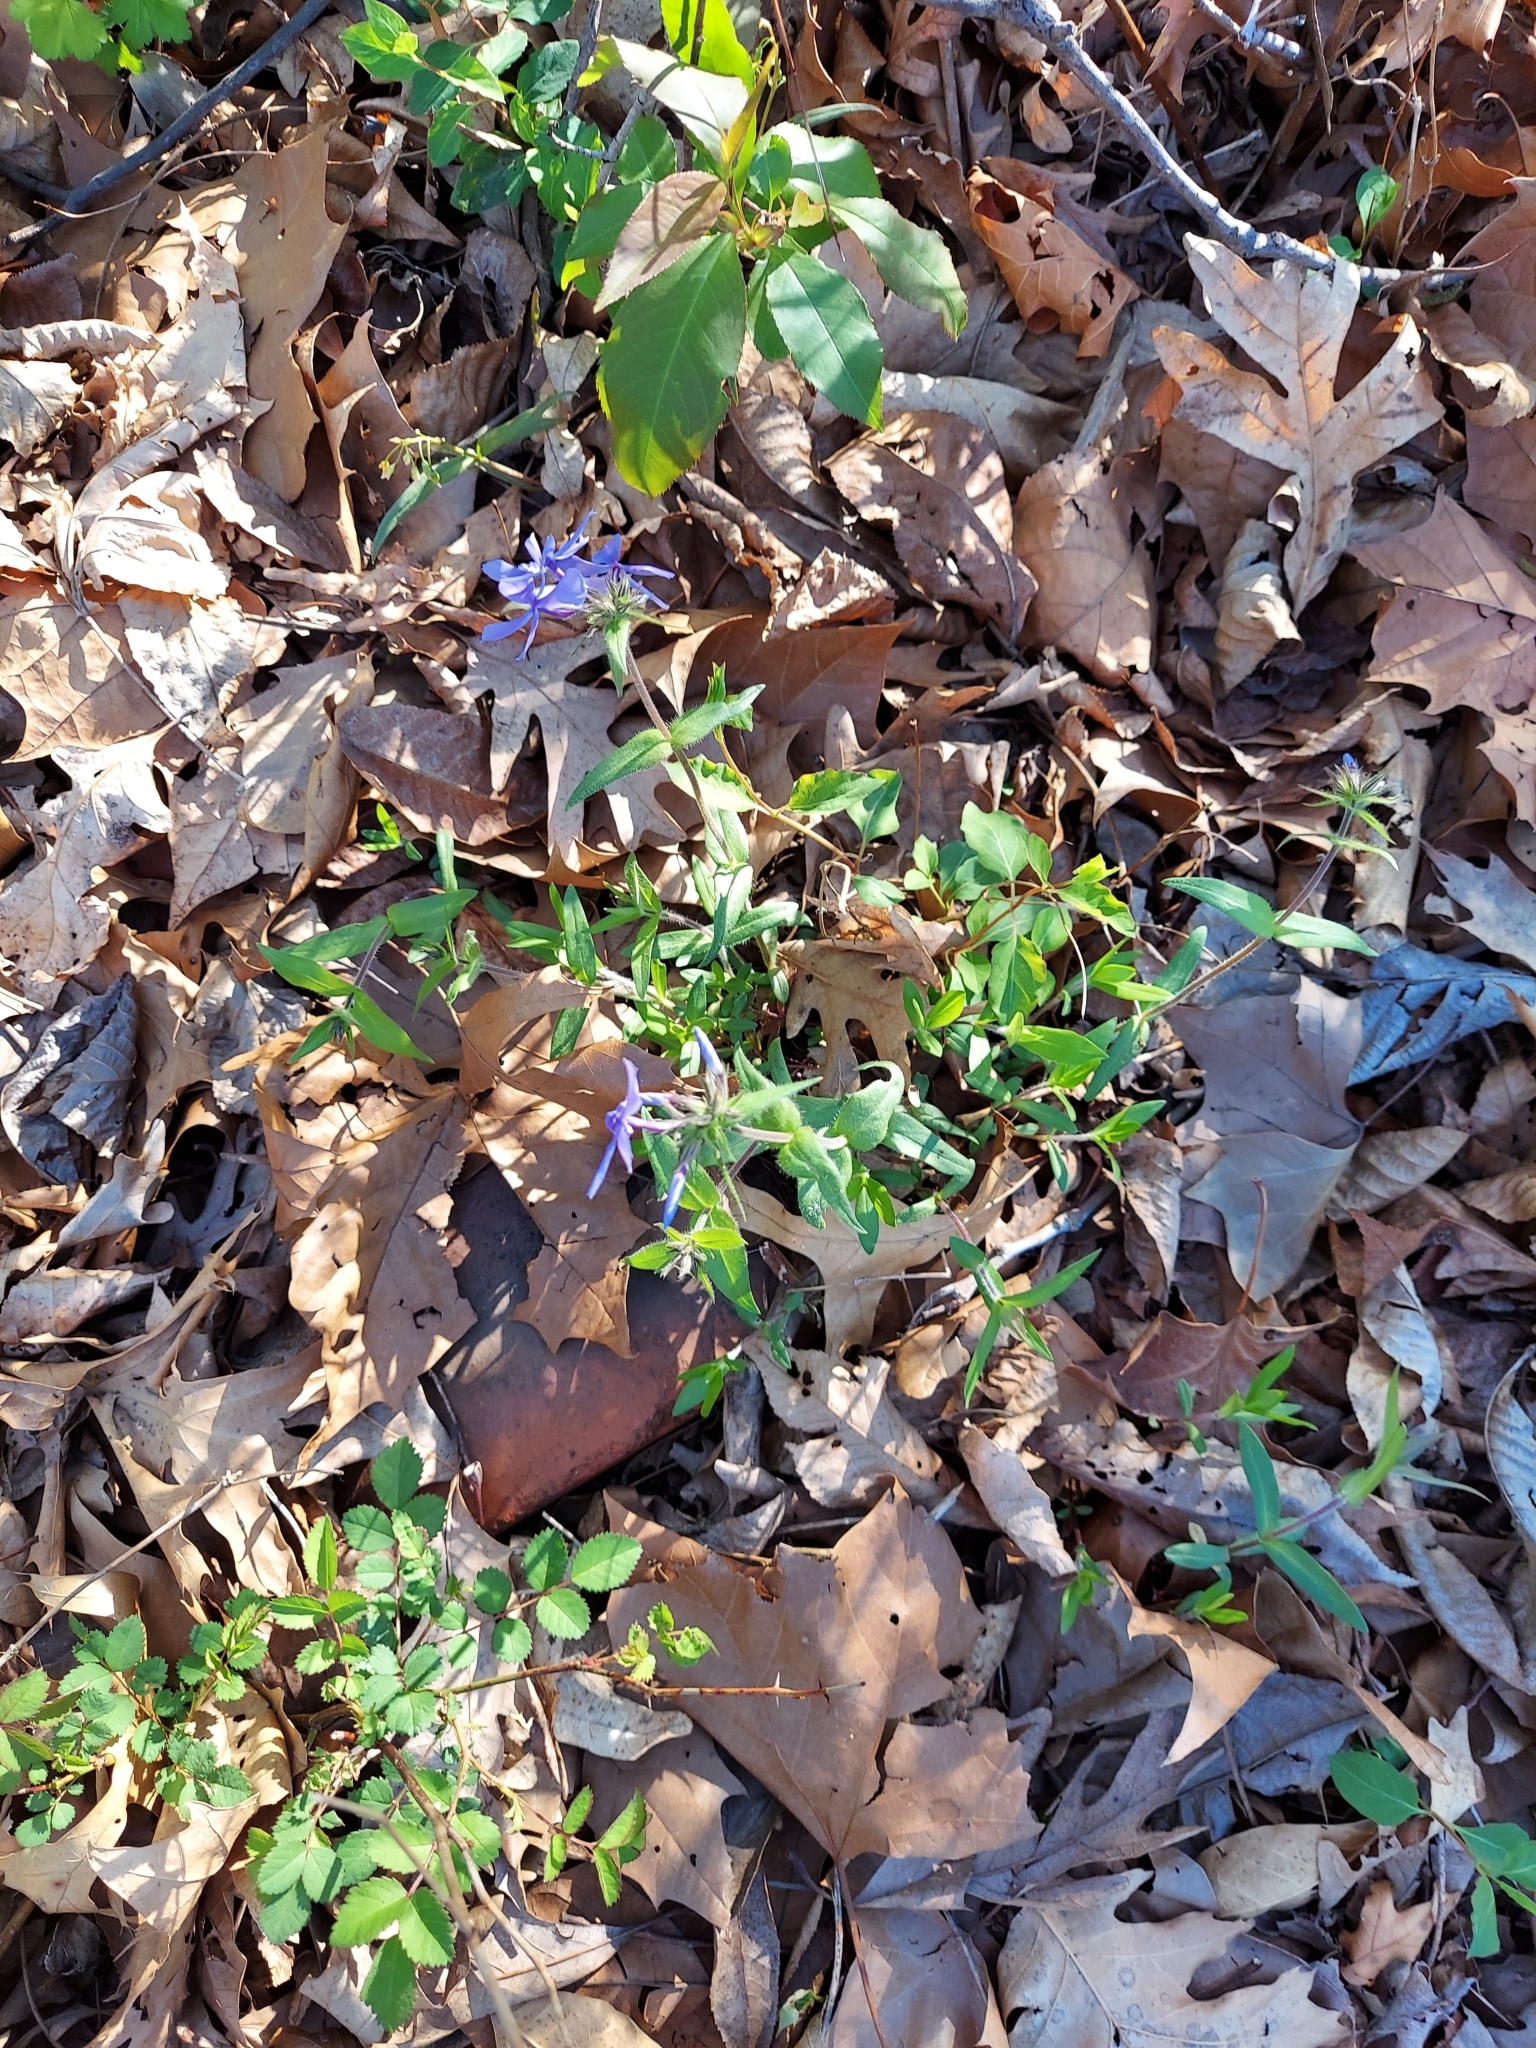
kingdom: Plantae
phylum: Tracheophyta
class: Magnoliopsida
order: Ericales
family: Polemoniaceae
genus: Phlox
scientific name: Phlox divaricata
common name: Blue phlox
